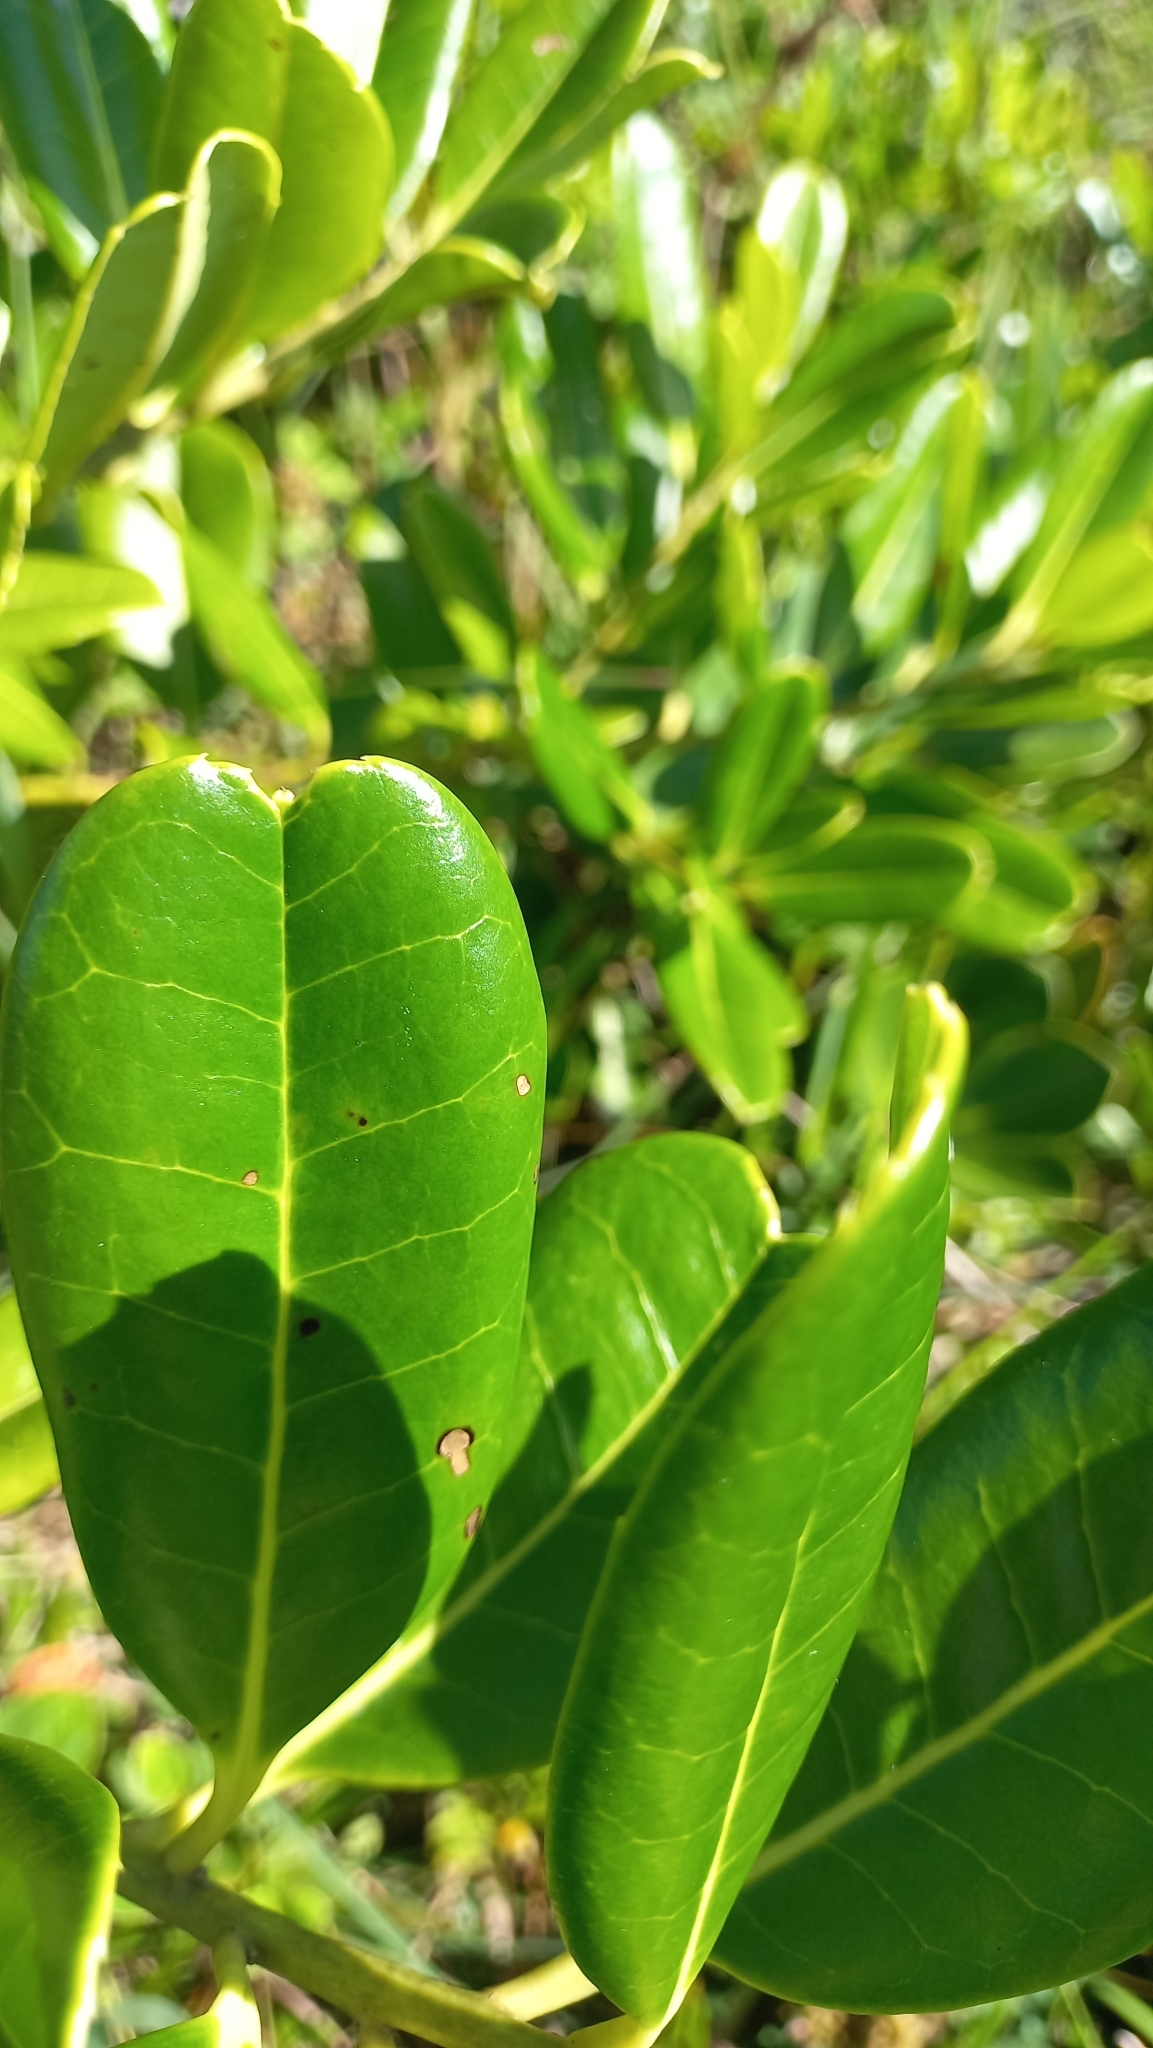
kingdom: Plantae
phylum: Tracheophyta
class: Magnoliopsida
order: Aquifoliales
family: Aquifoliaceae
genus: Ilex
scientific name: Ilex theezans
